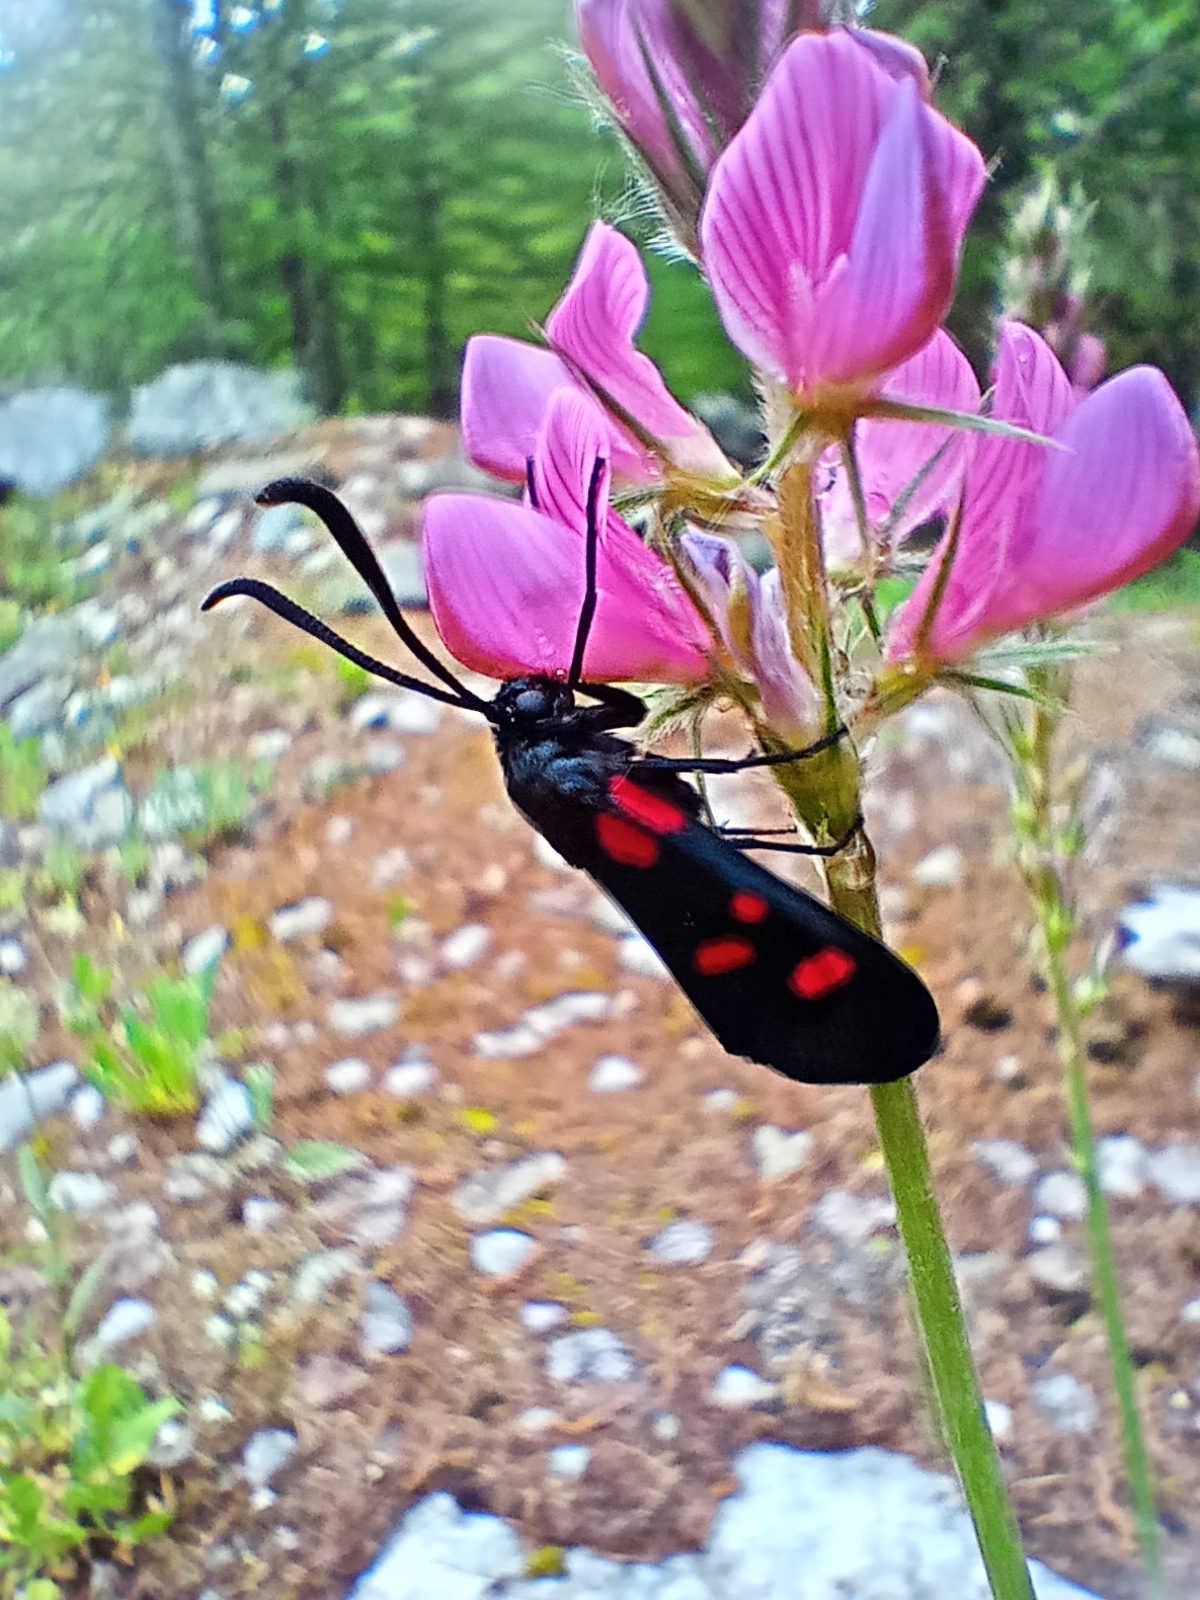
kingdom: Animalia
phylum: Arthropoda
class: Insecta
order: Lepidoptera
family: Zygaenidae
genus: Zygaena
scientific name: Zygaena lonicerae
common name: Narrow-bordered five-spot burnet
